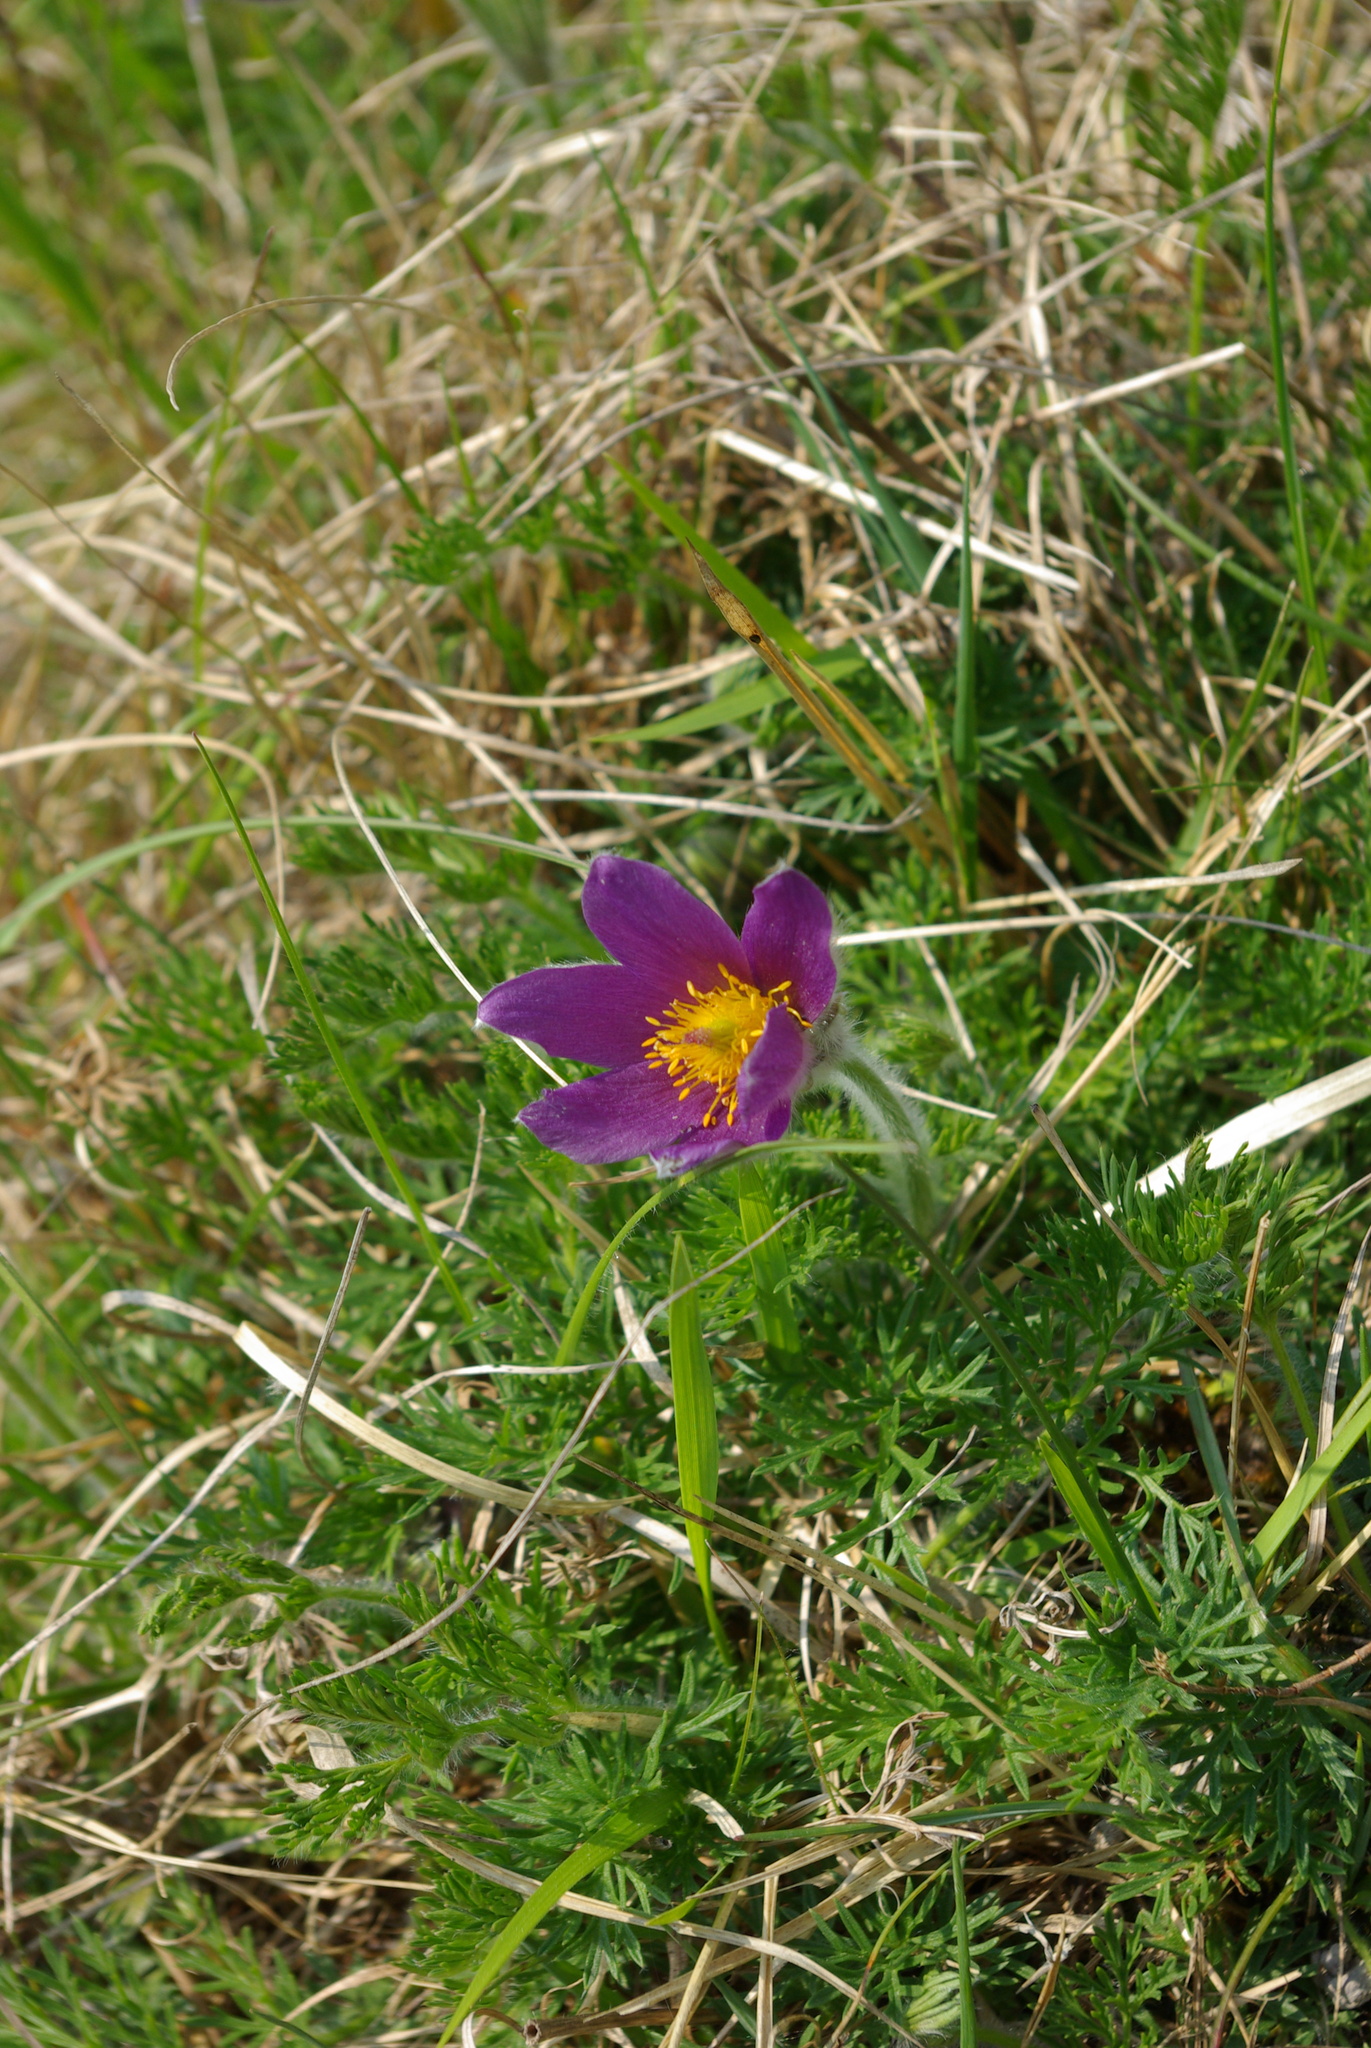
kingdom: Plantae
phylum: Tracheophyta
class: Magnoliopsida
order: Ranunculales
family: Ranunculaceae
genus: Pulsatilla
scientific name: Pulsatilla vulgaris
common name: Pasqueflower
